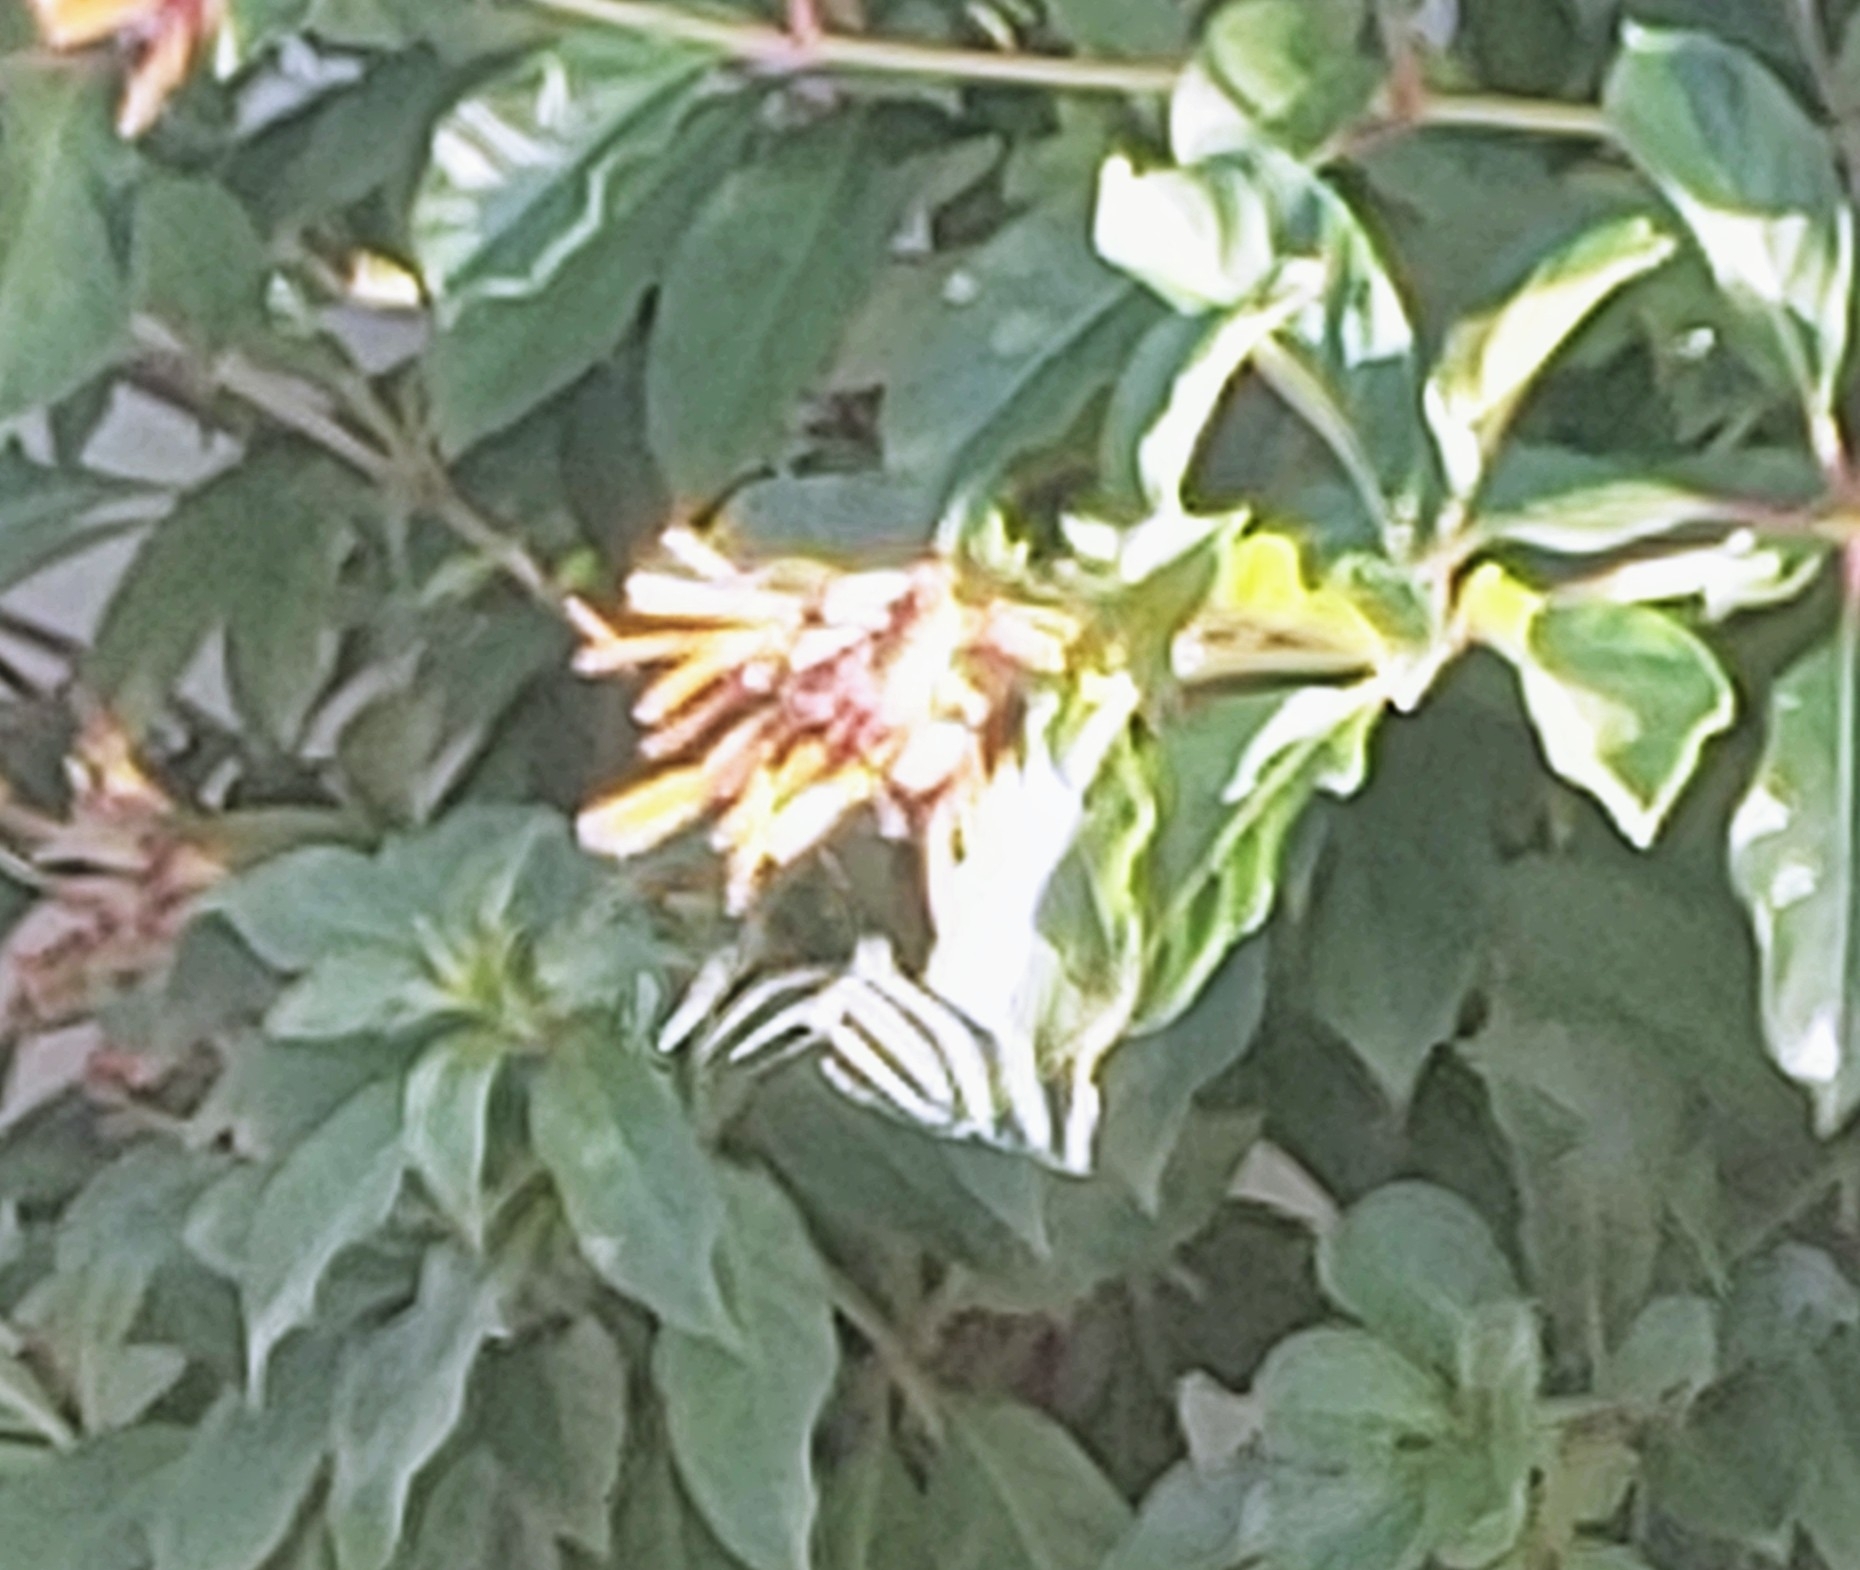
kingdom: Animalia
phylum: Arthropoda
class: Insecta
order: Lepidoptera
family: Nymphalidae
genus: Heliconius
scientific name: Heliconius charithonia
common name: Zebra long wing
